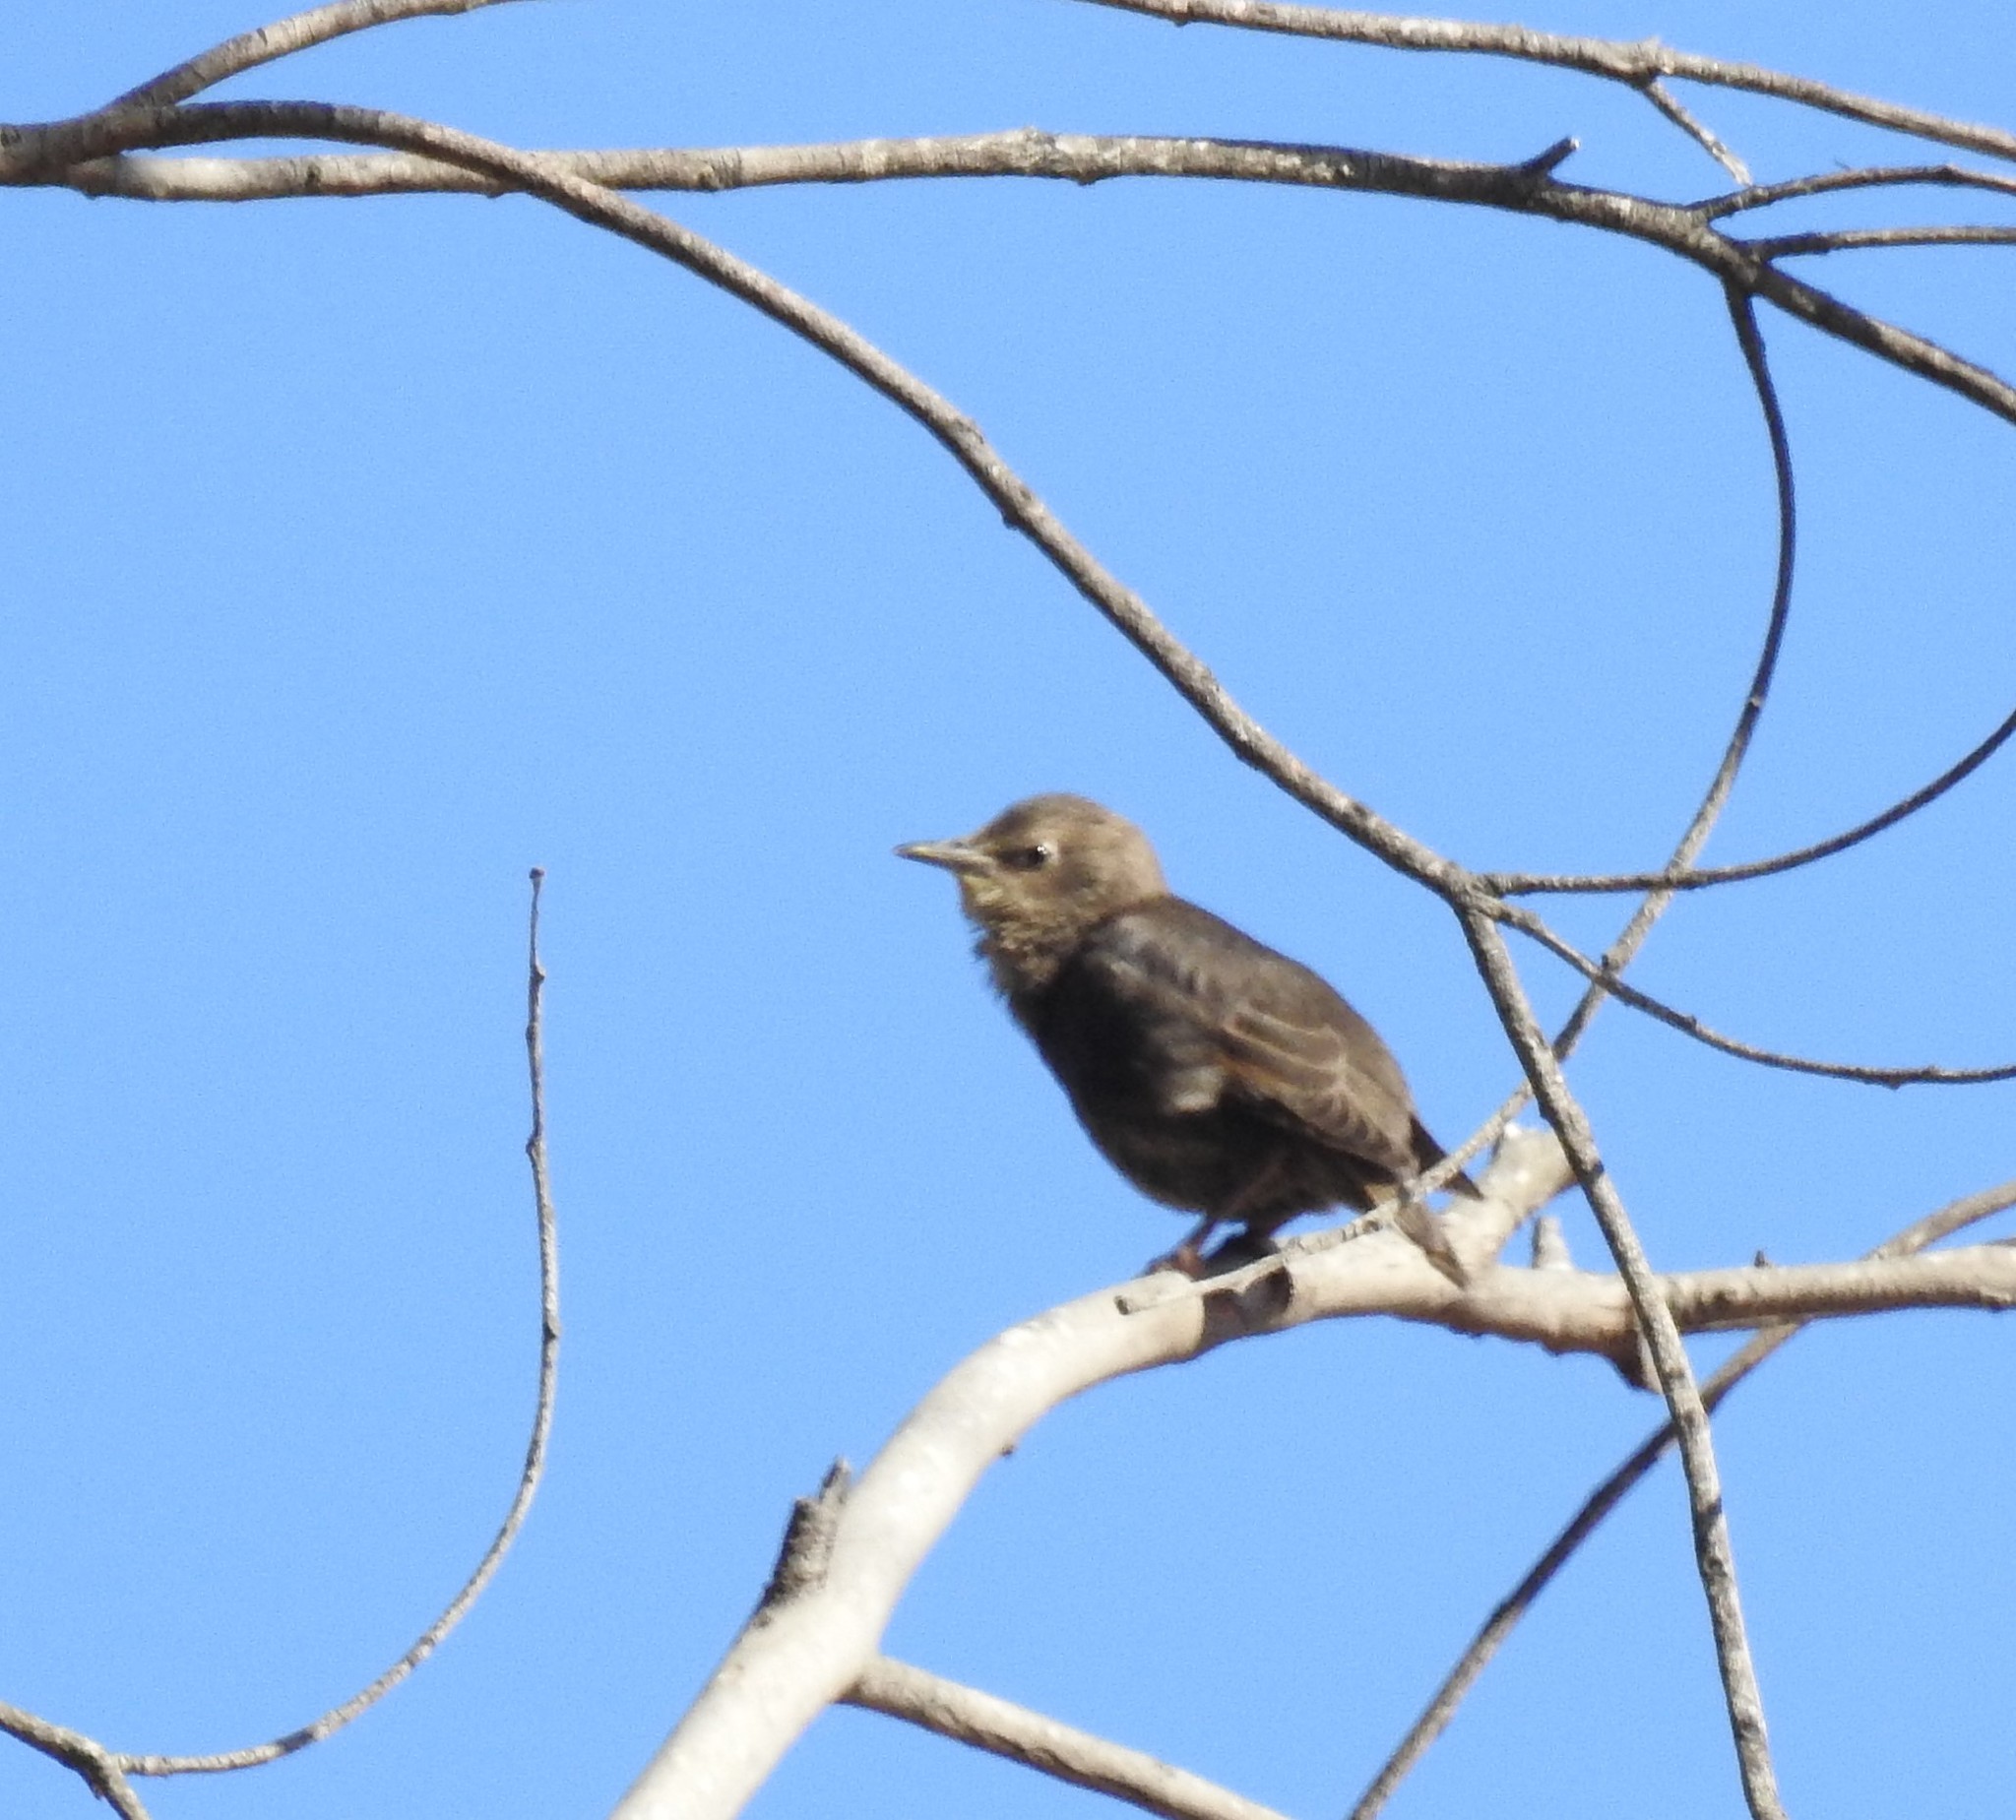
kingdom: Animalia
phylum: Chordata
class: Aves
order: Passeriformes
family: Sturnidae
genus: Sturnus
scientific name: Sturnus vulgaris
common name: Common starling
